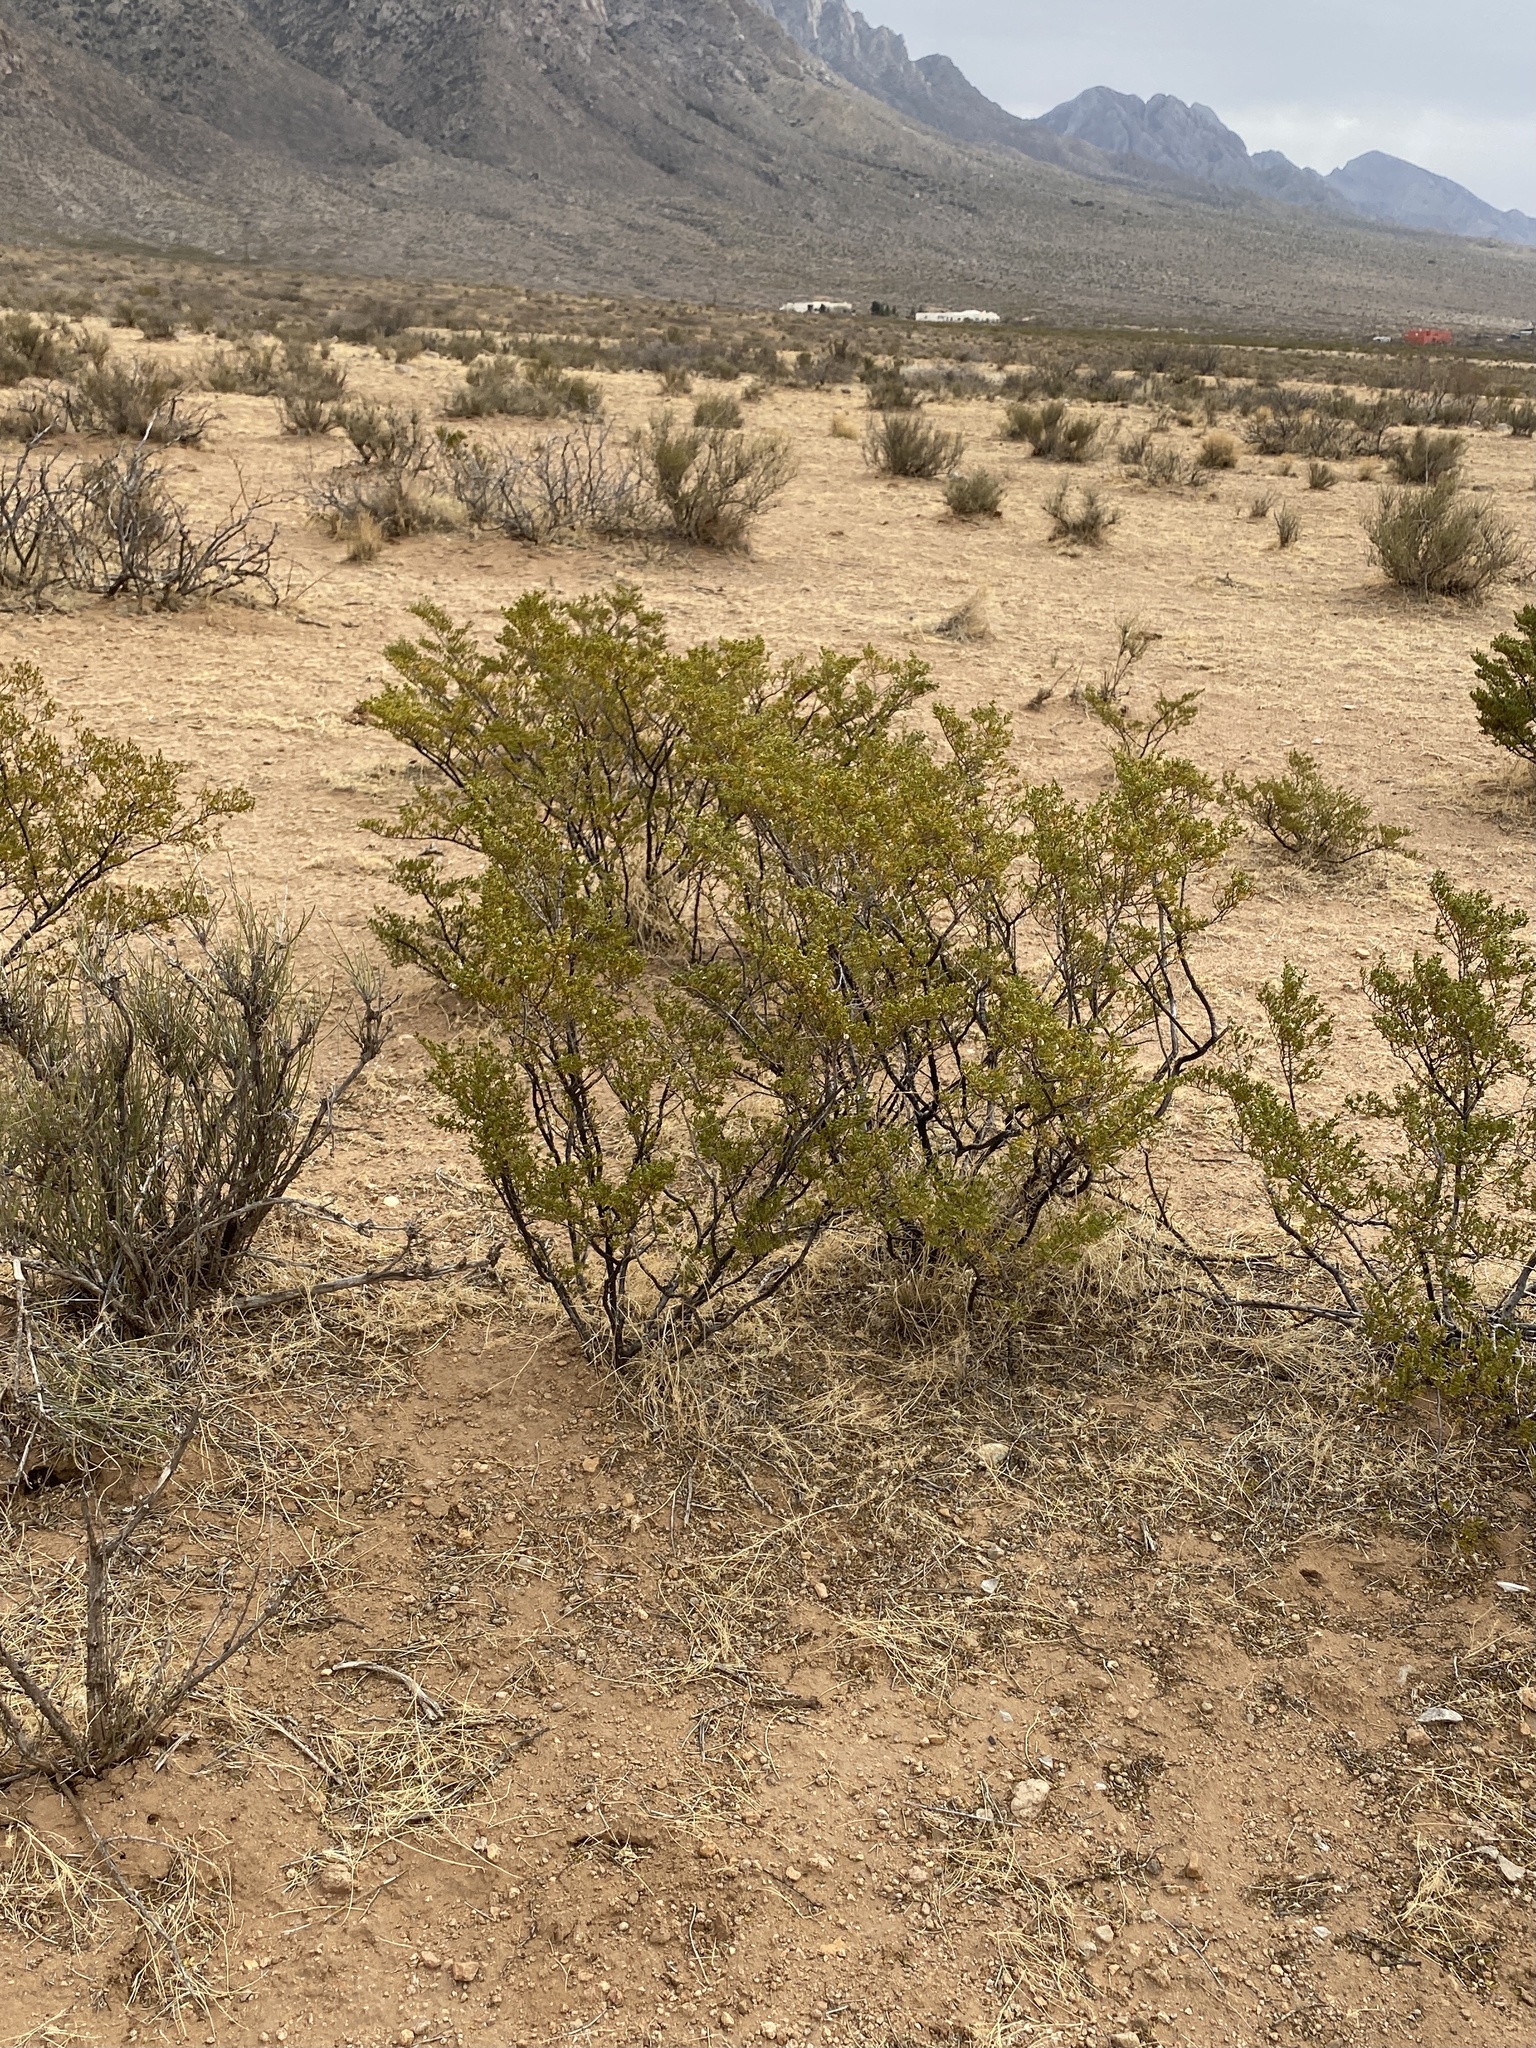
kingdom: Plantae
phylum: Tracheophyta
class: Magnoliopsida
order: Zygophyllales
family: Zygophyllaceae
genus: Larrea
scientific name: Larrea tridentata
